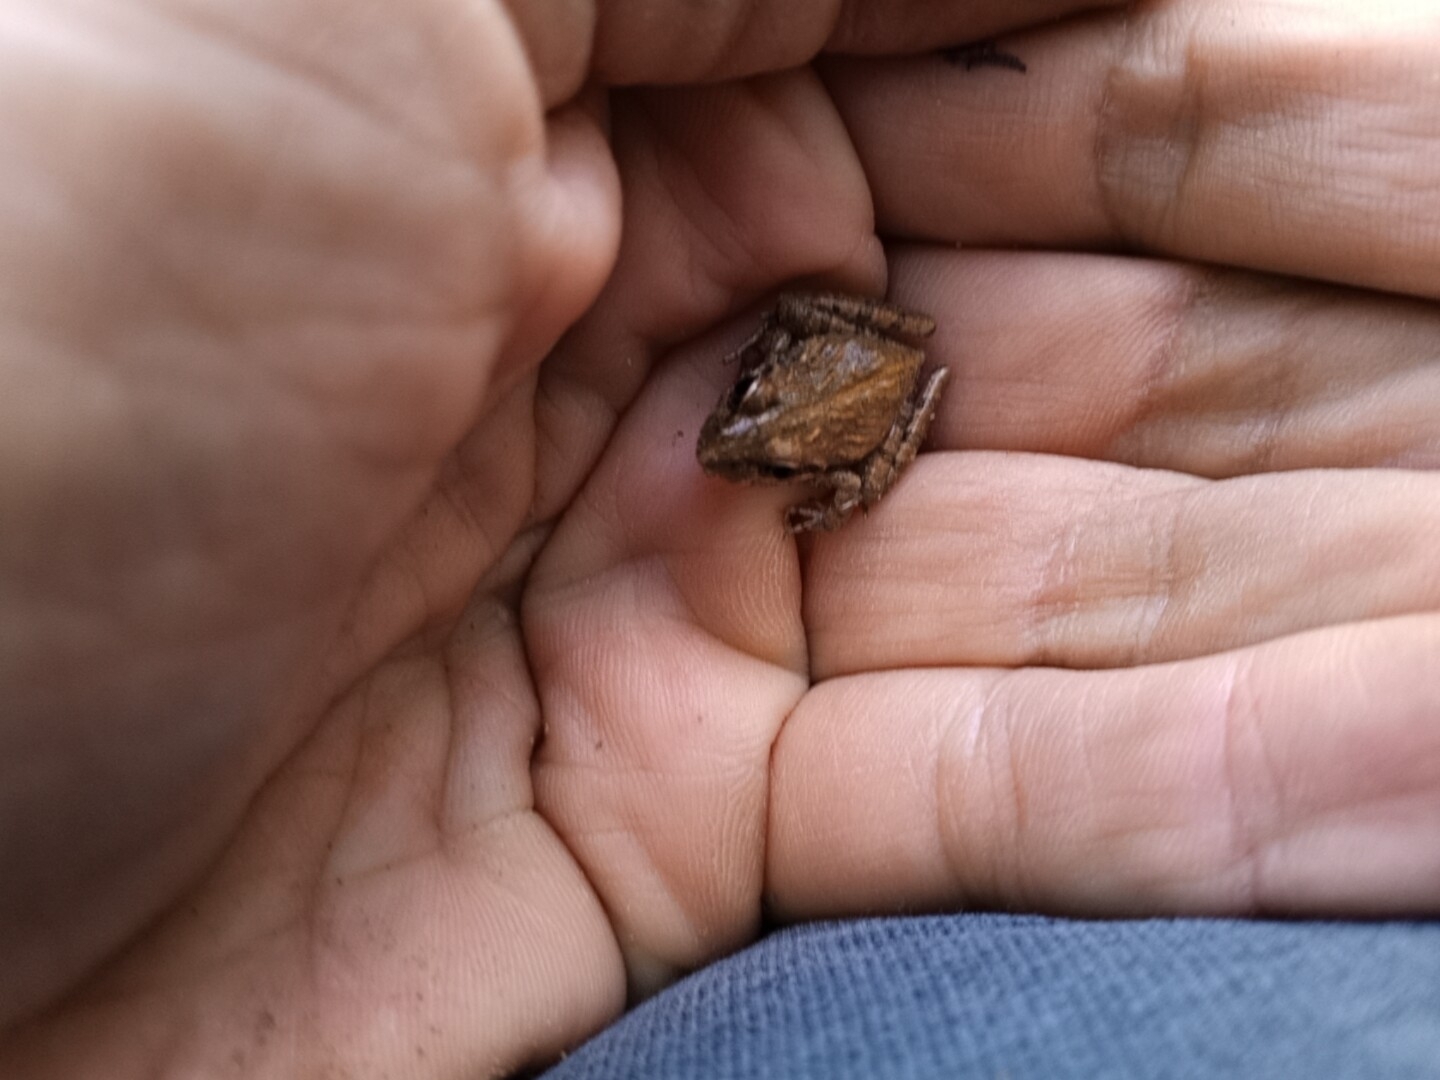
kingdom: Animalia
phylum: Chordata
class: Amphibia
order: Anura
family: Pyxicephalidae
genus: Strongylopus
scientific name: Strongylopus grayii
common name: Gray's stream frog
